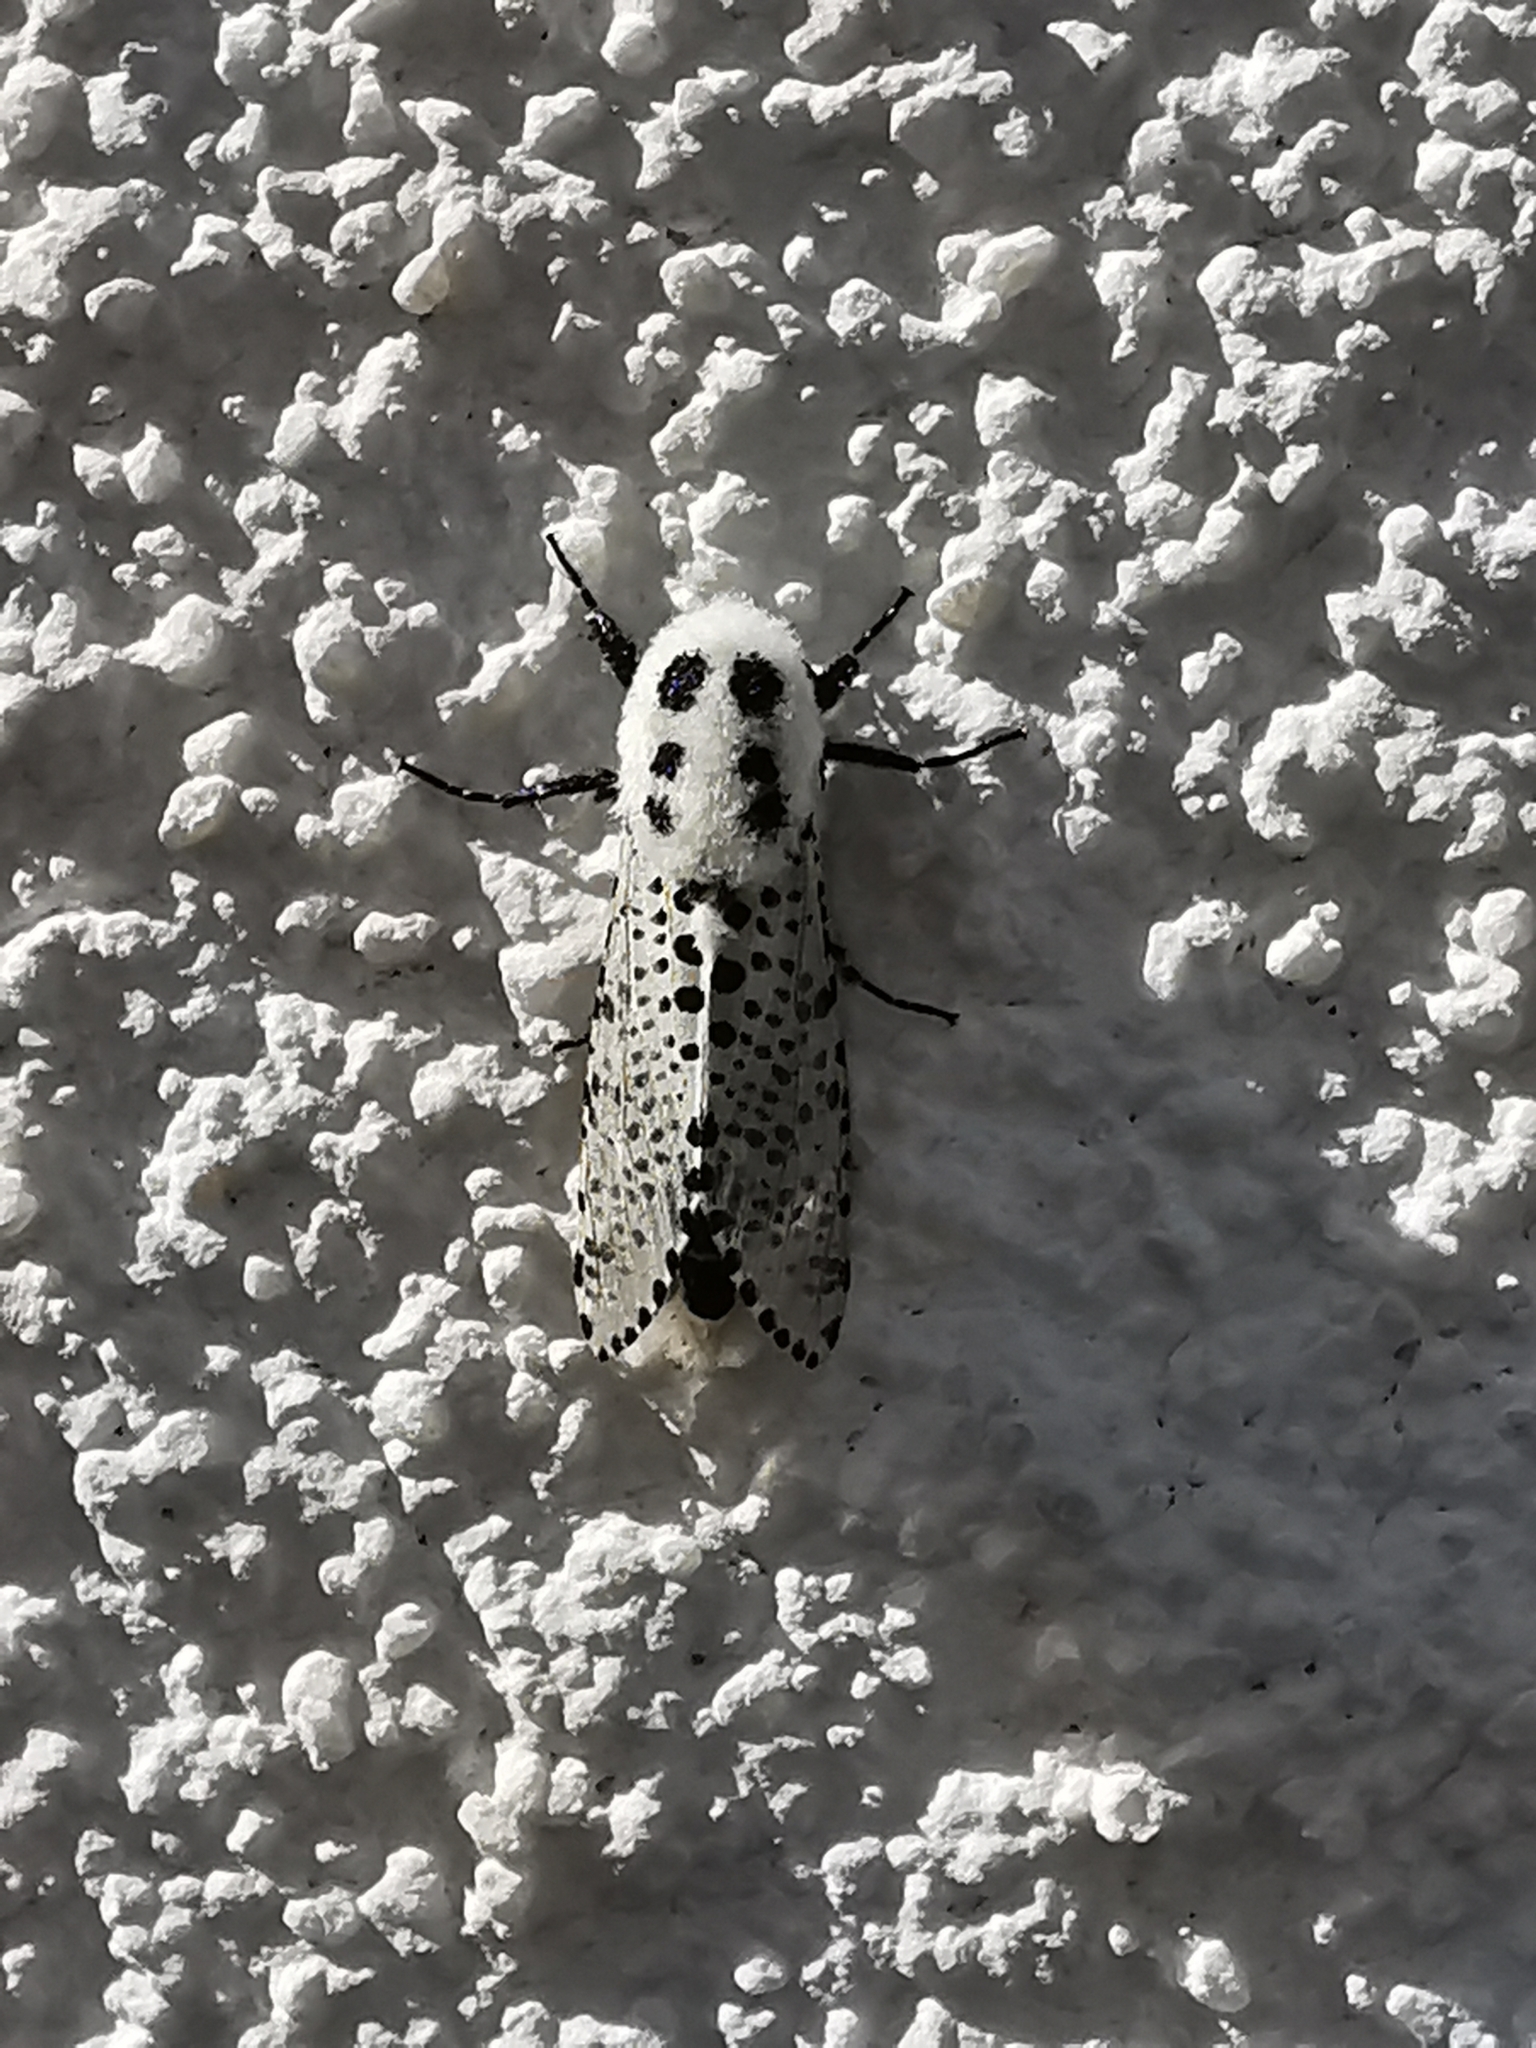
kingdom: Animalia
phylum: Arthropoda
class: Insecta
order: Lepidoptera
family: Cossidae
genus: Zeuzera
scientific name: Zeuzera pyrina
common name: Leopard moth
